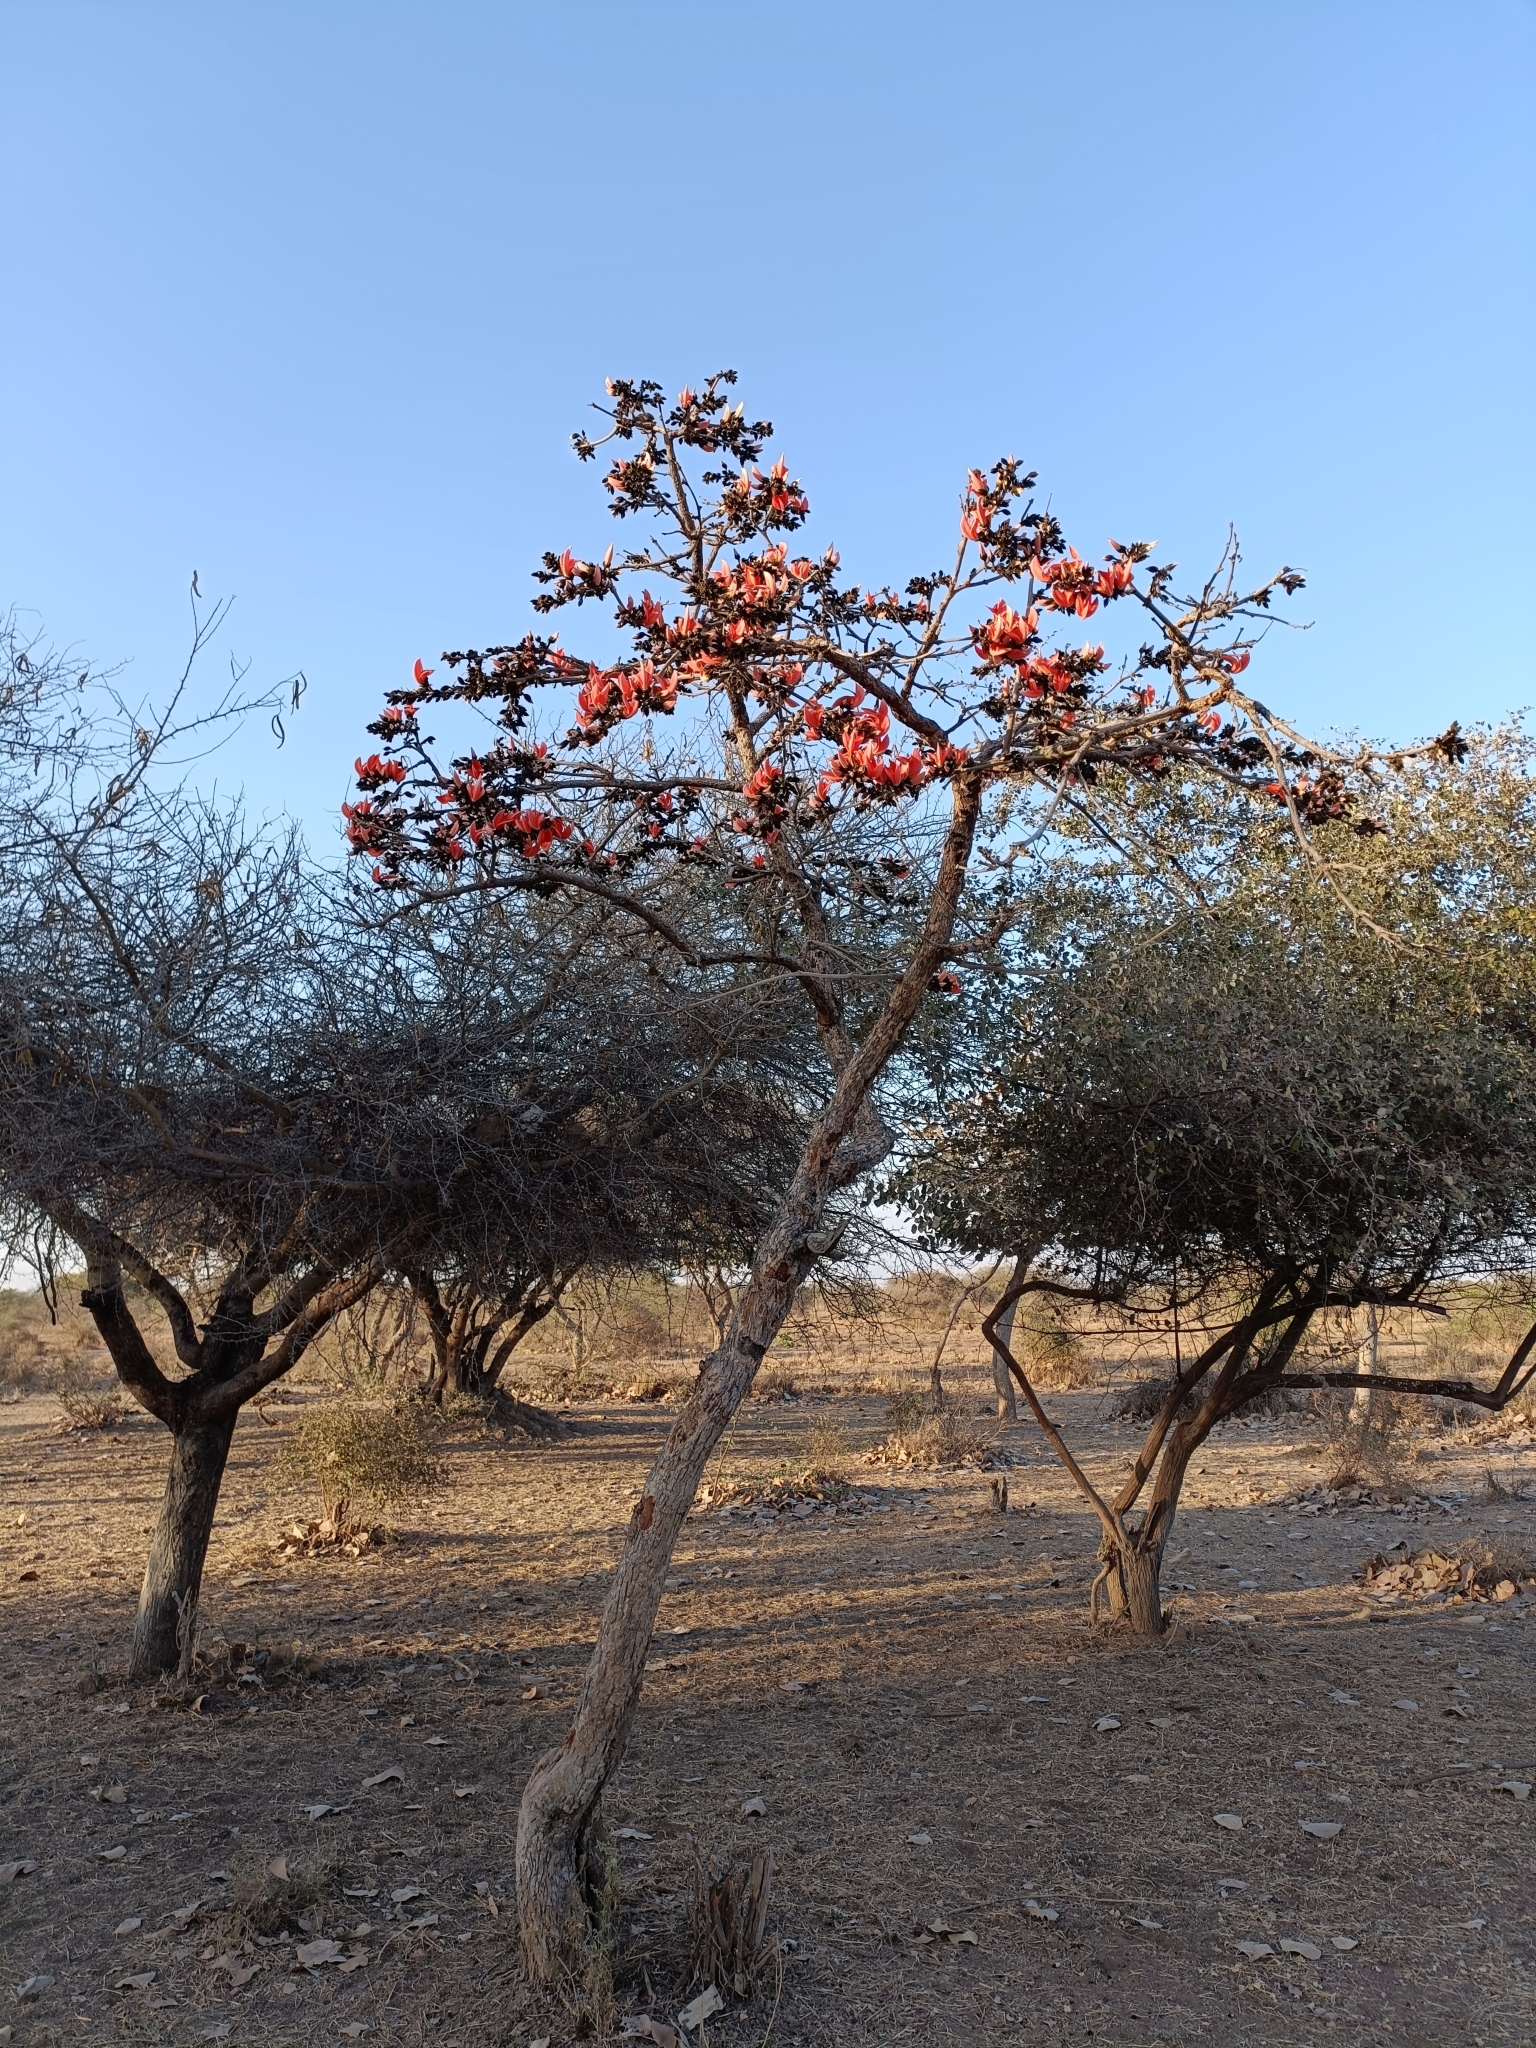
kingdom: Plantae
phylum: Tracheophyta
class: Magnoliopsida
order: Fabales
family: Fabaceae
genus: Butea
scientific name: Butea monosperma
